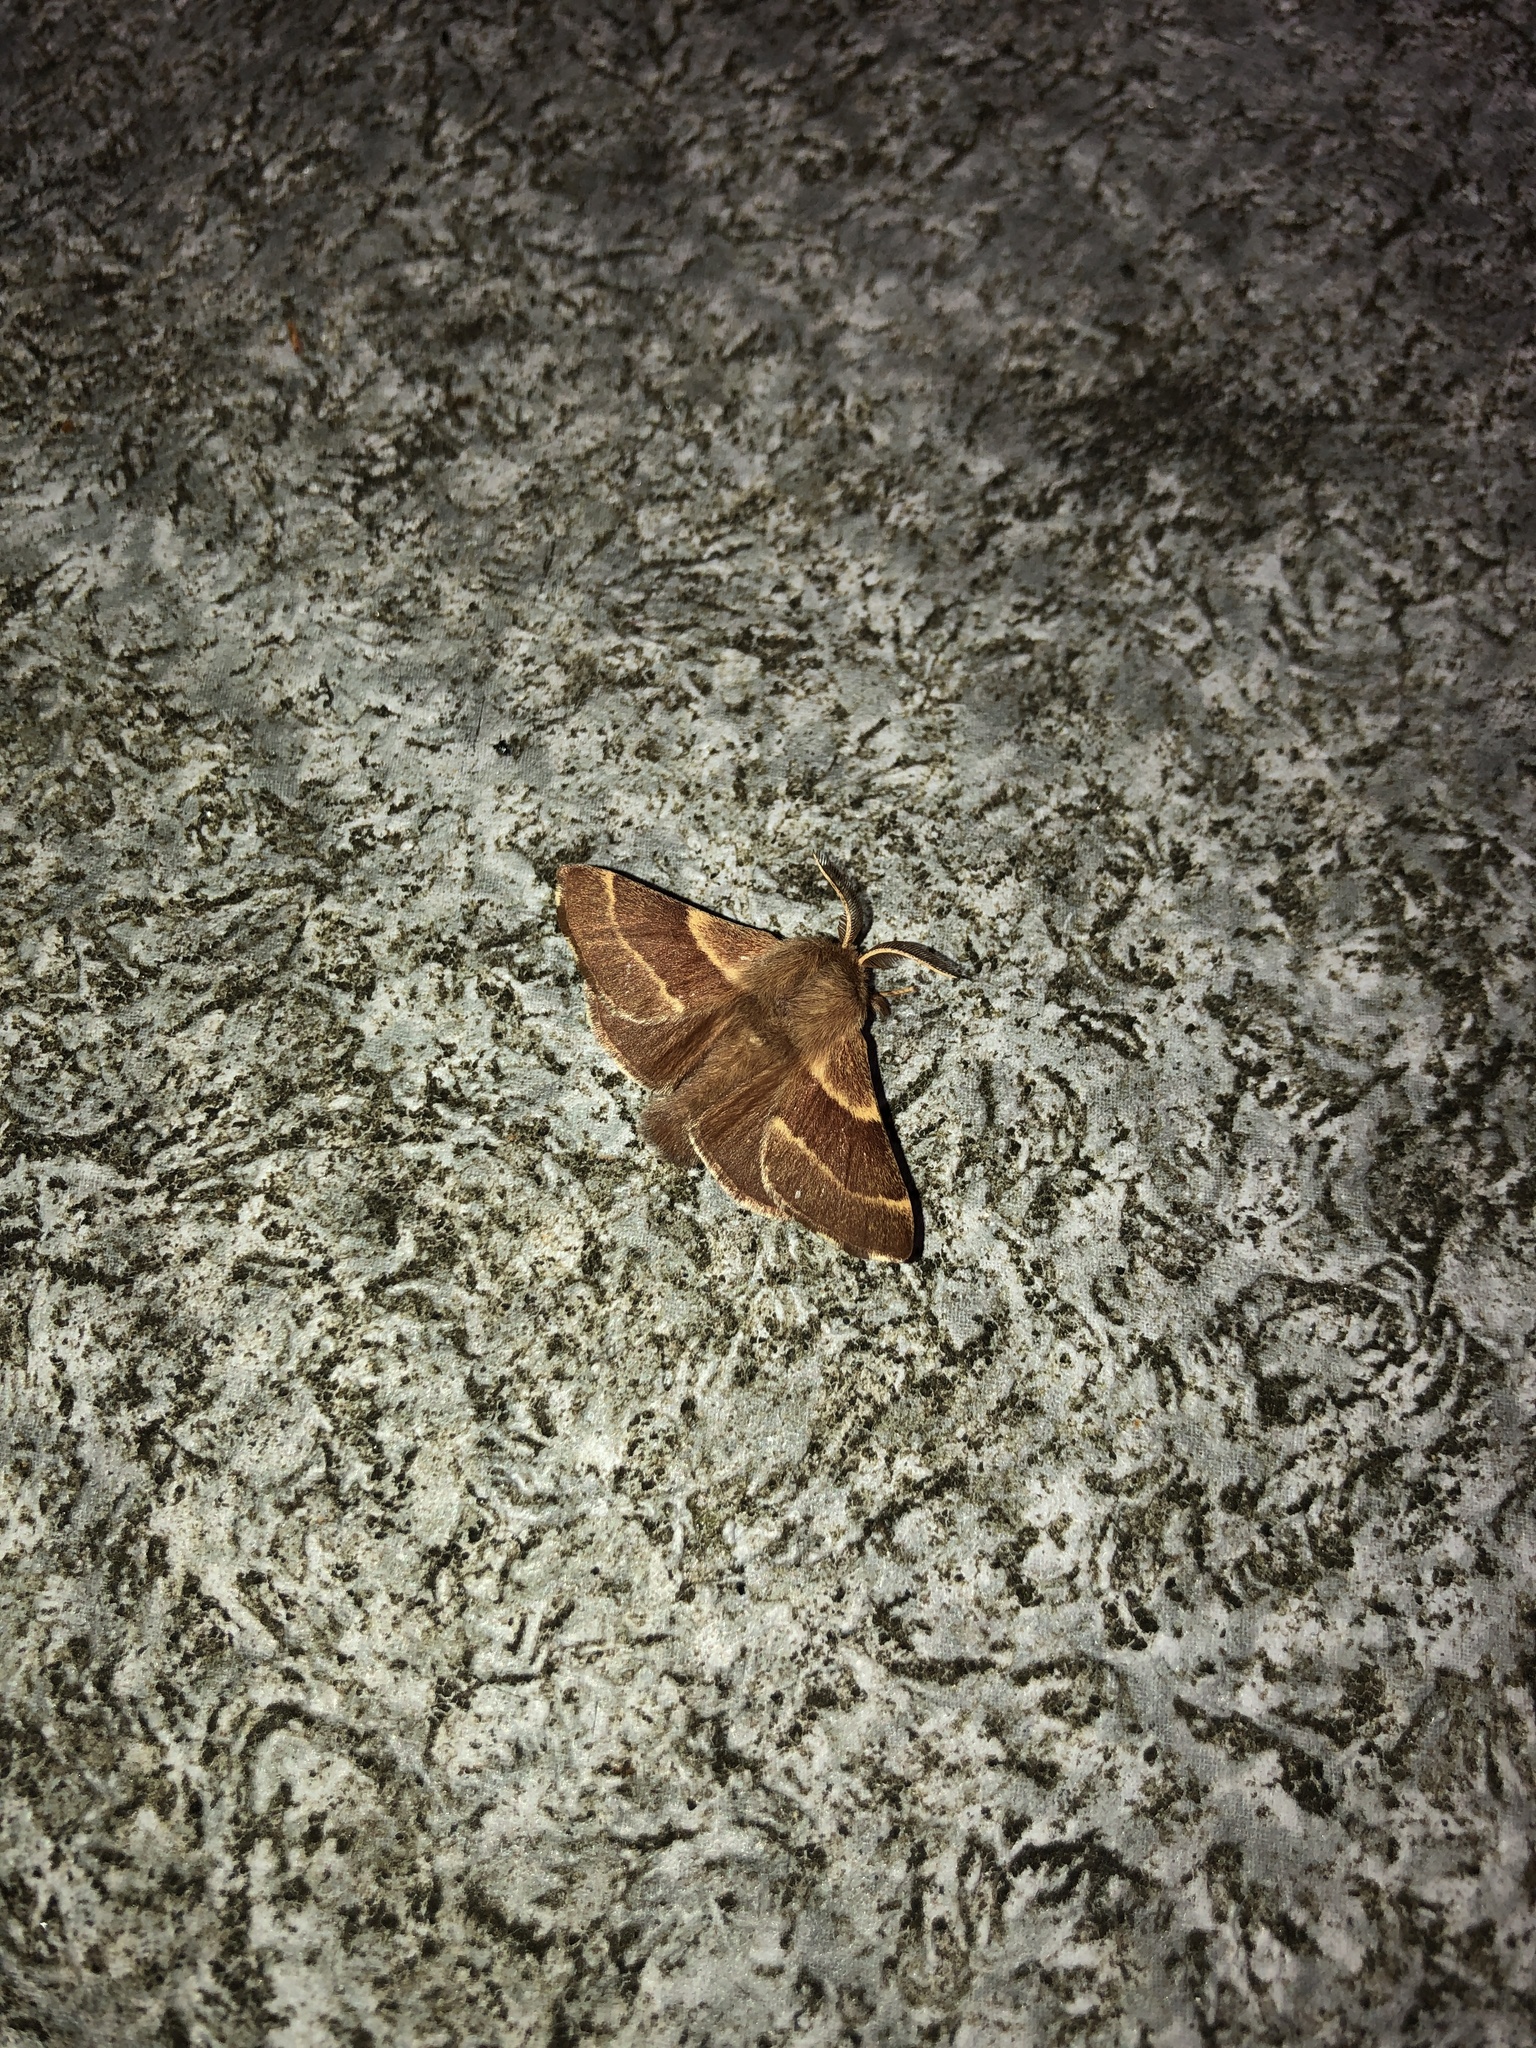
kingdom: Animalia
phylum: Arthropoda
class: Insecta
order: Lepidoptera
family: Lasiocampidae
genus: Malacosoma
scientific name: Malacosoma californica
